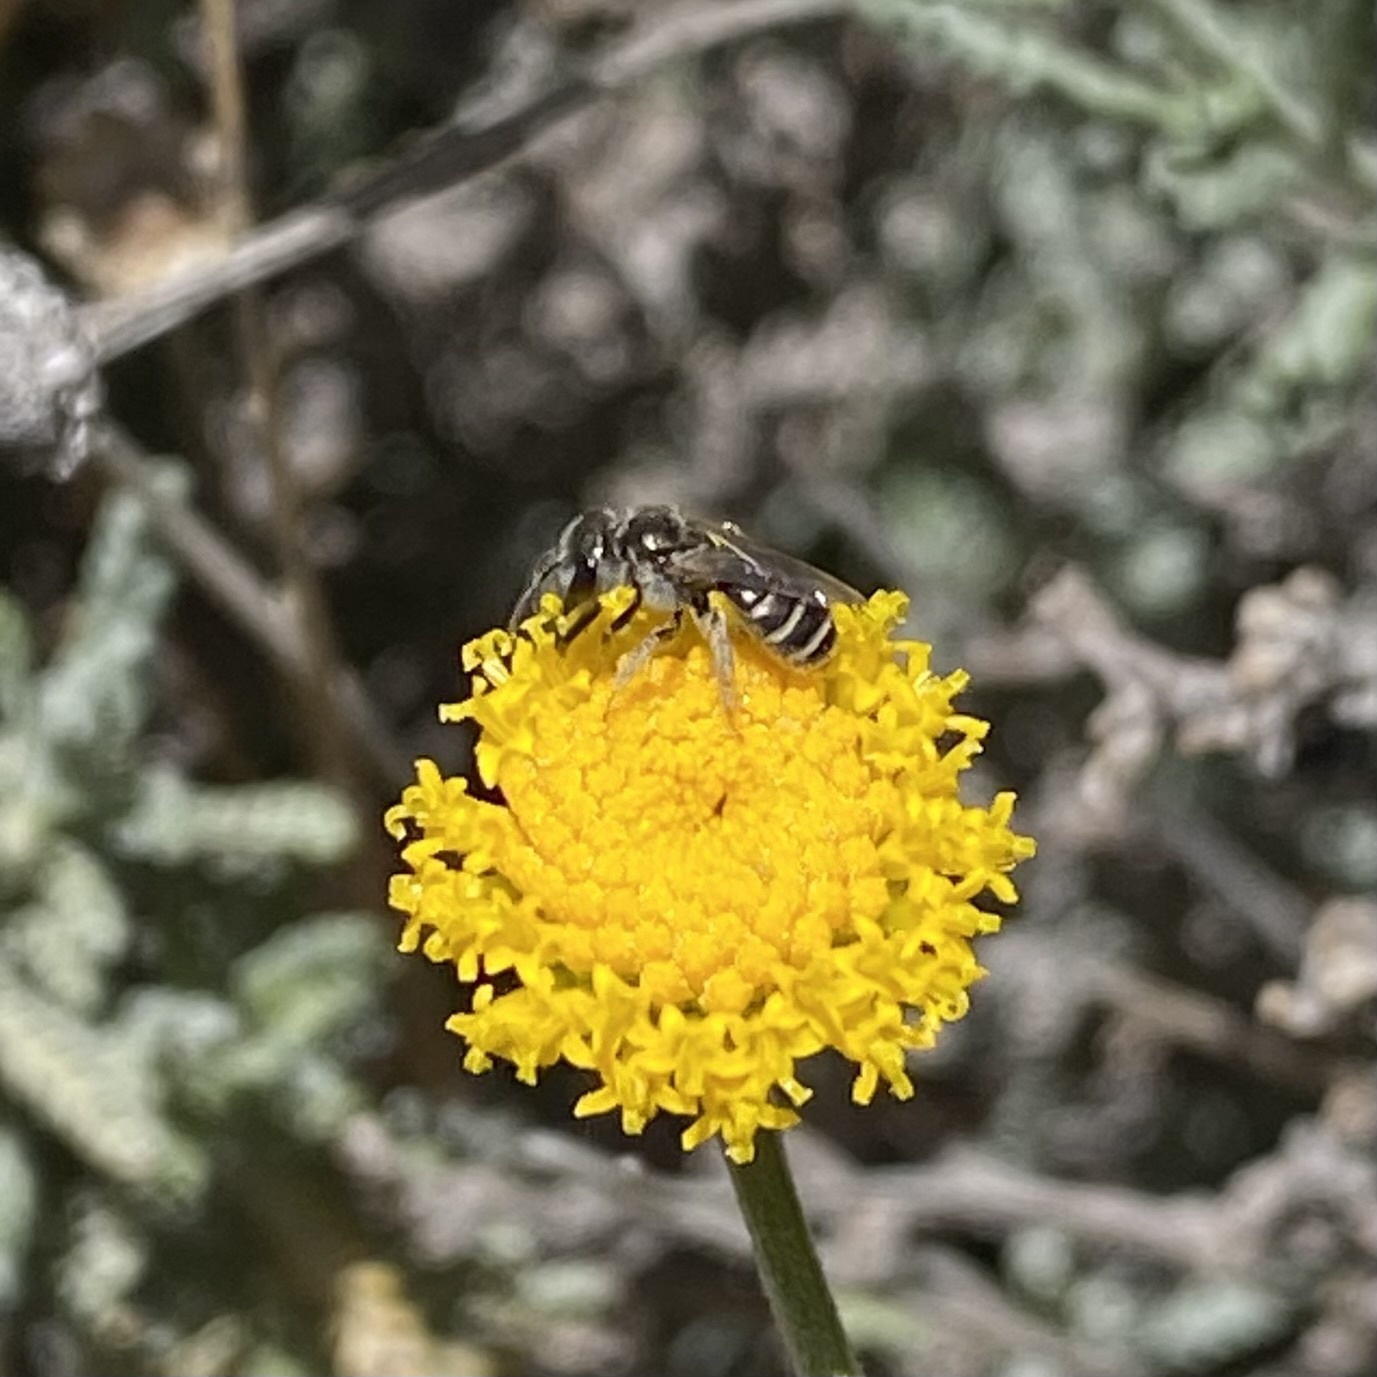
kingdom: Animalia
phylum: Arthropoda
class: Insecta
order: Hymenoptera
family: Halictidae
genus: Halictus
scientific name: Halictus tripartitus
